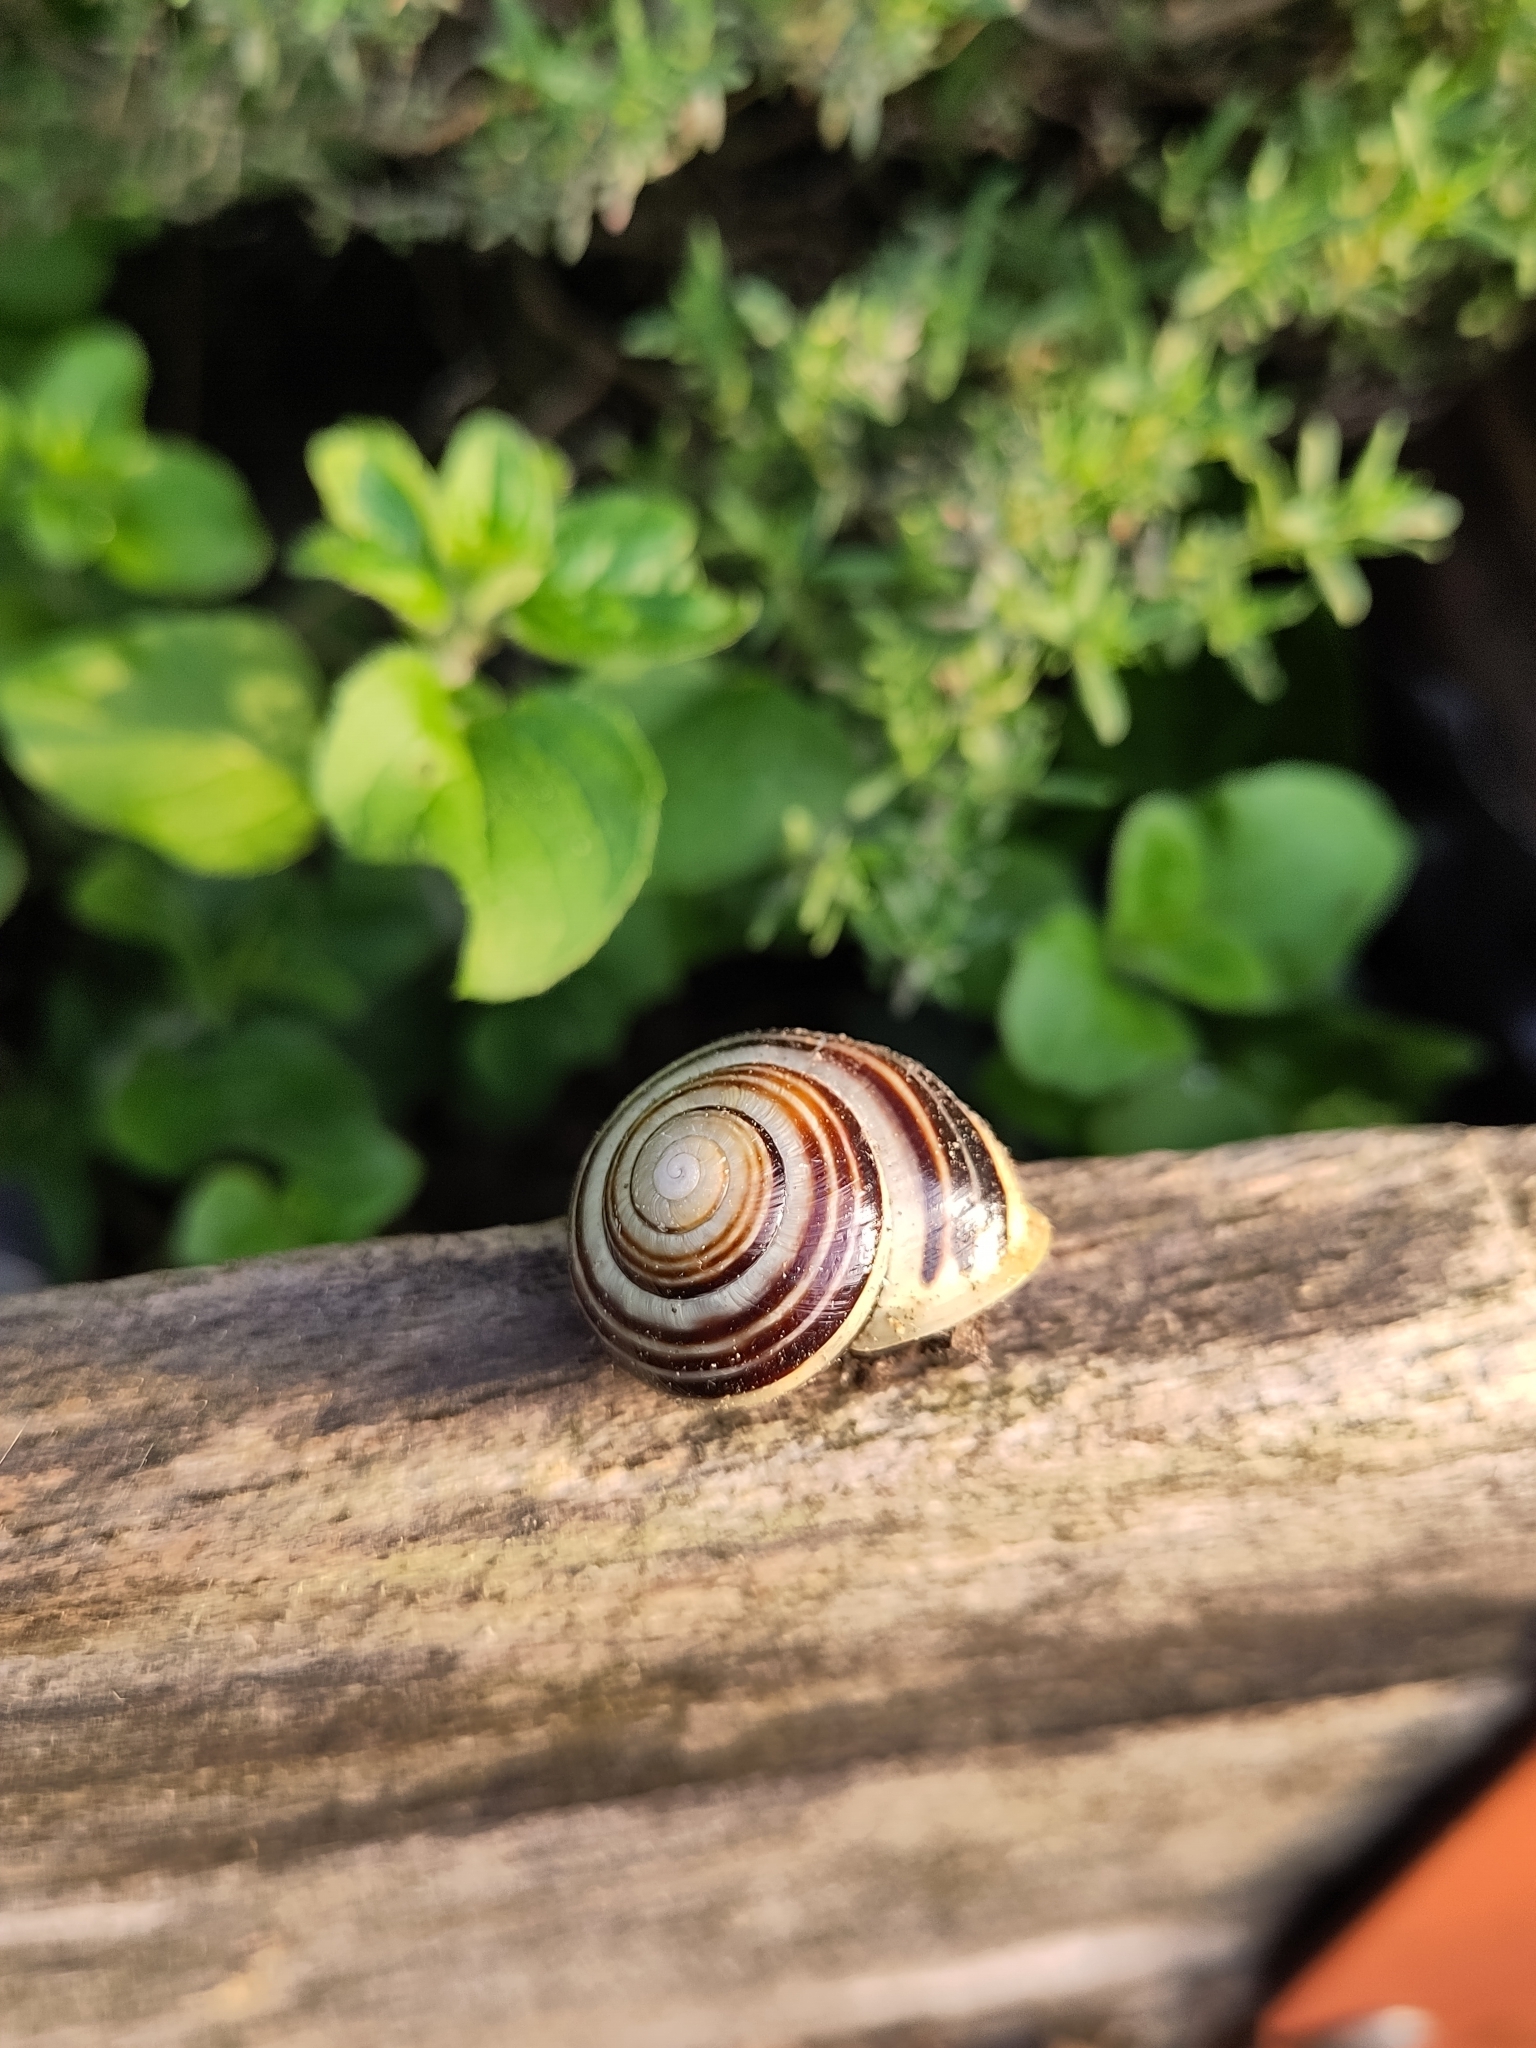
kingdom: Animalia
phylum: Mollusca
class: Gastropoda
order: Stylommatophora
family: Helicidae
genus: Cepaea
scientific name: Cepaea hortensis
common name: White-lip gardensnail
